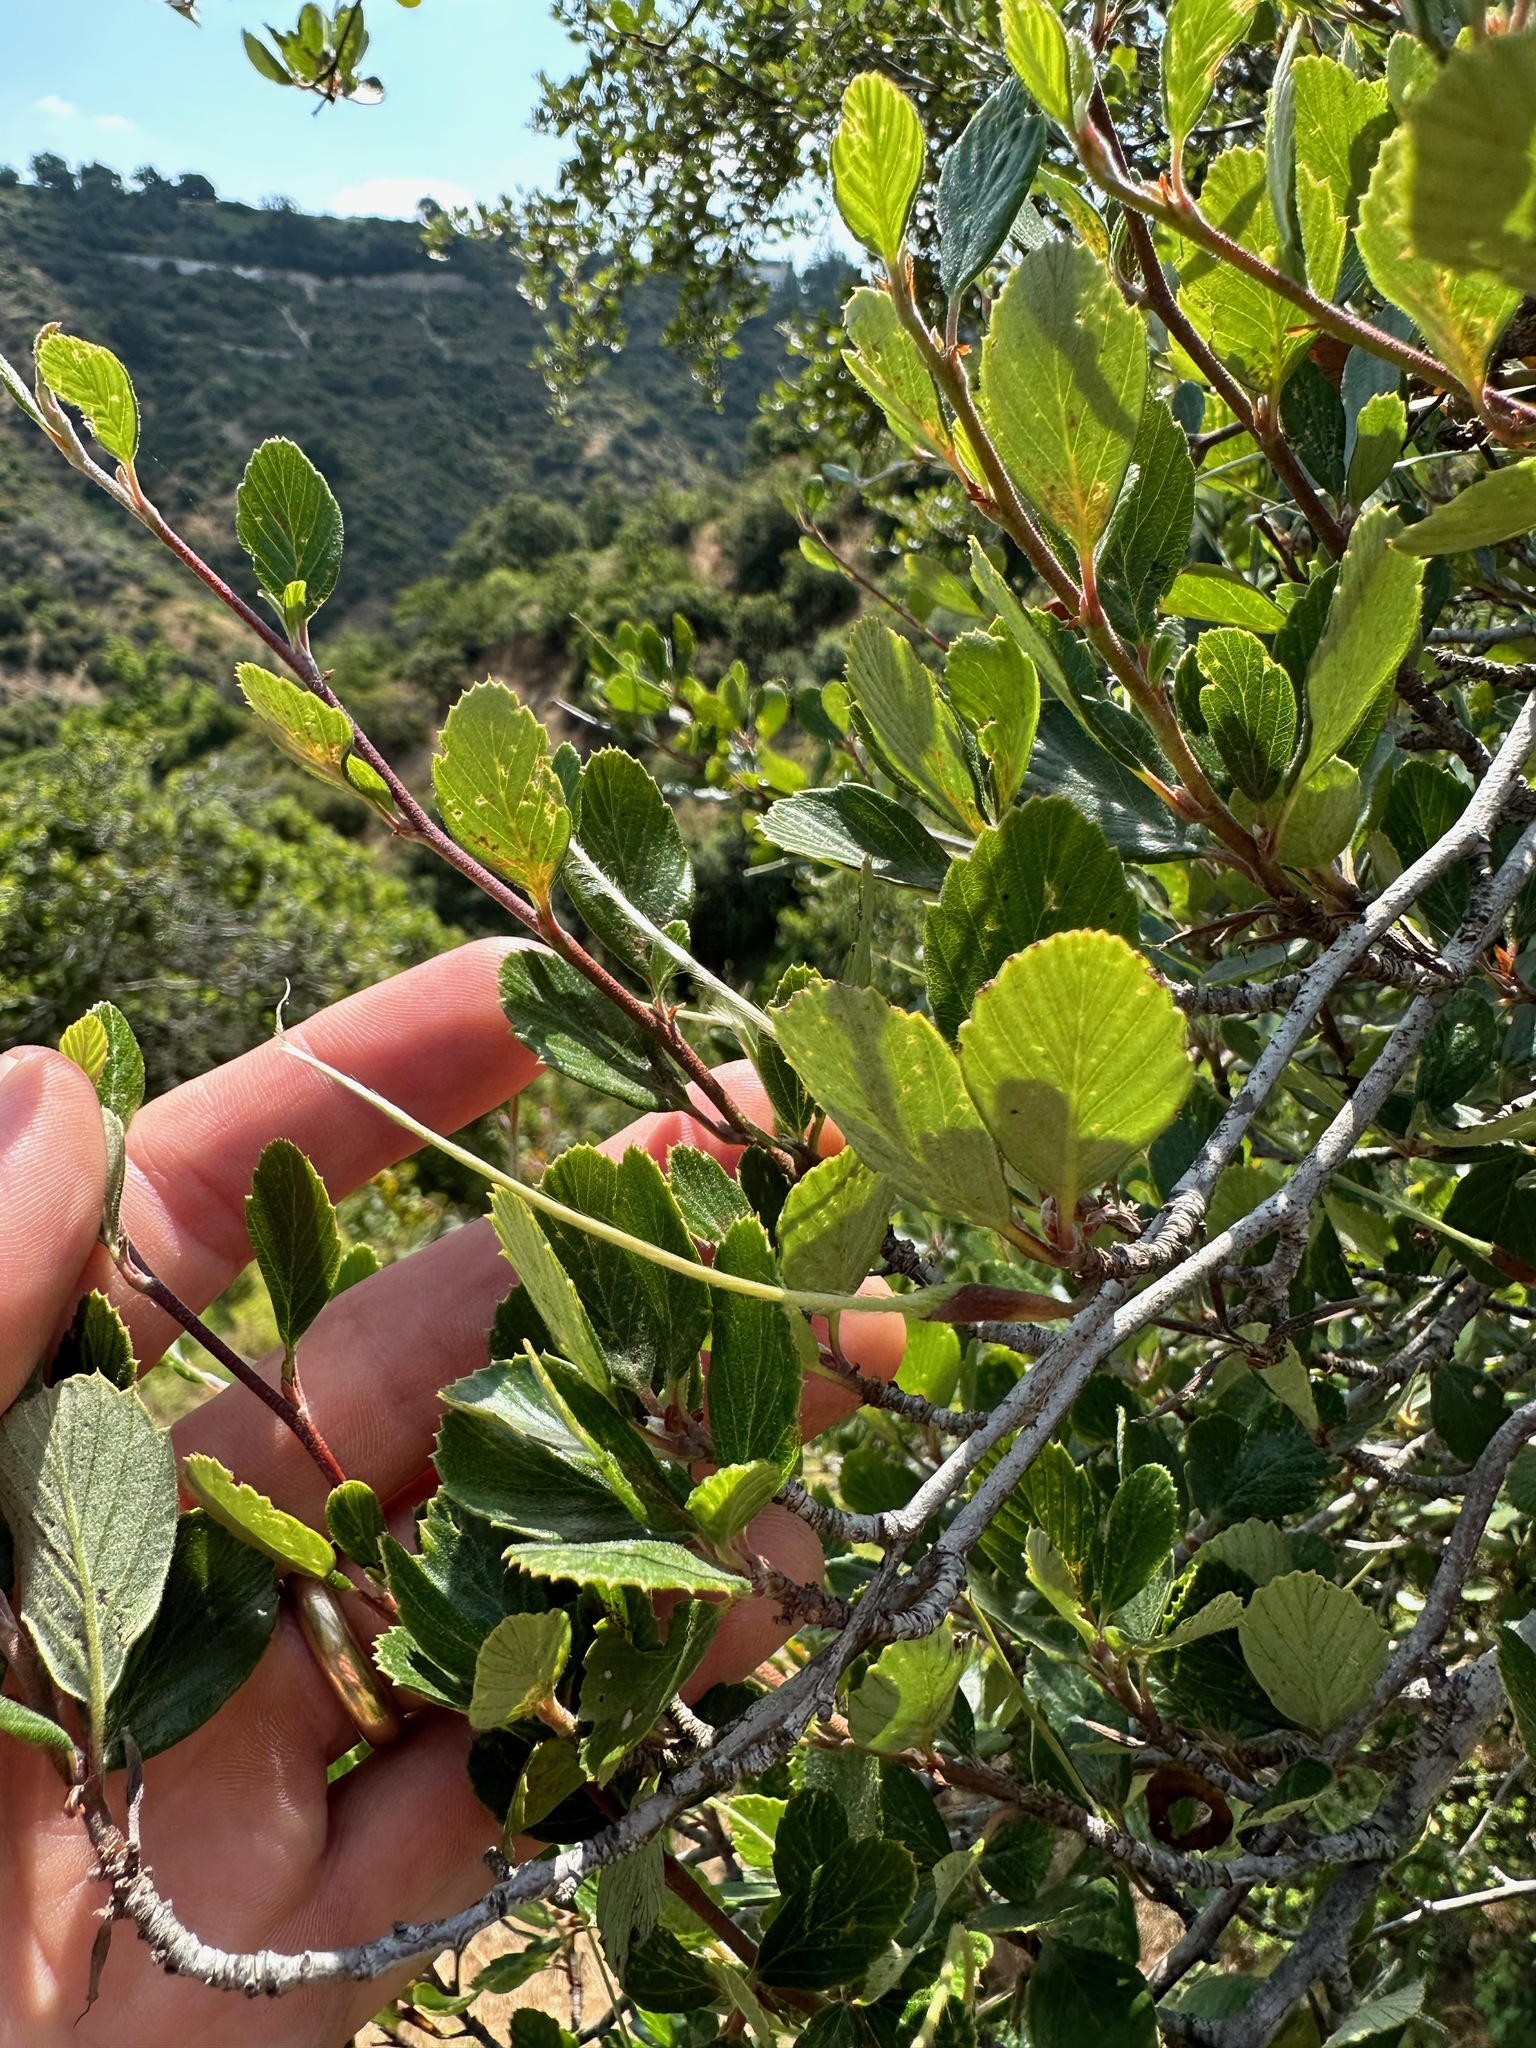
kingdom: Plantae
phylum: Tracheophyta
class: Magnoliopsida
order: Rosales
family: Rosaceae
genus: Cercocarpus
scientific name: Cercocarpus betuloides
